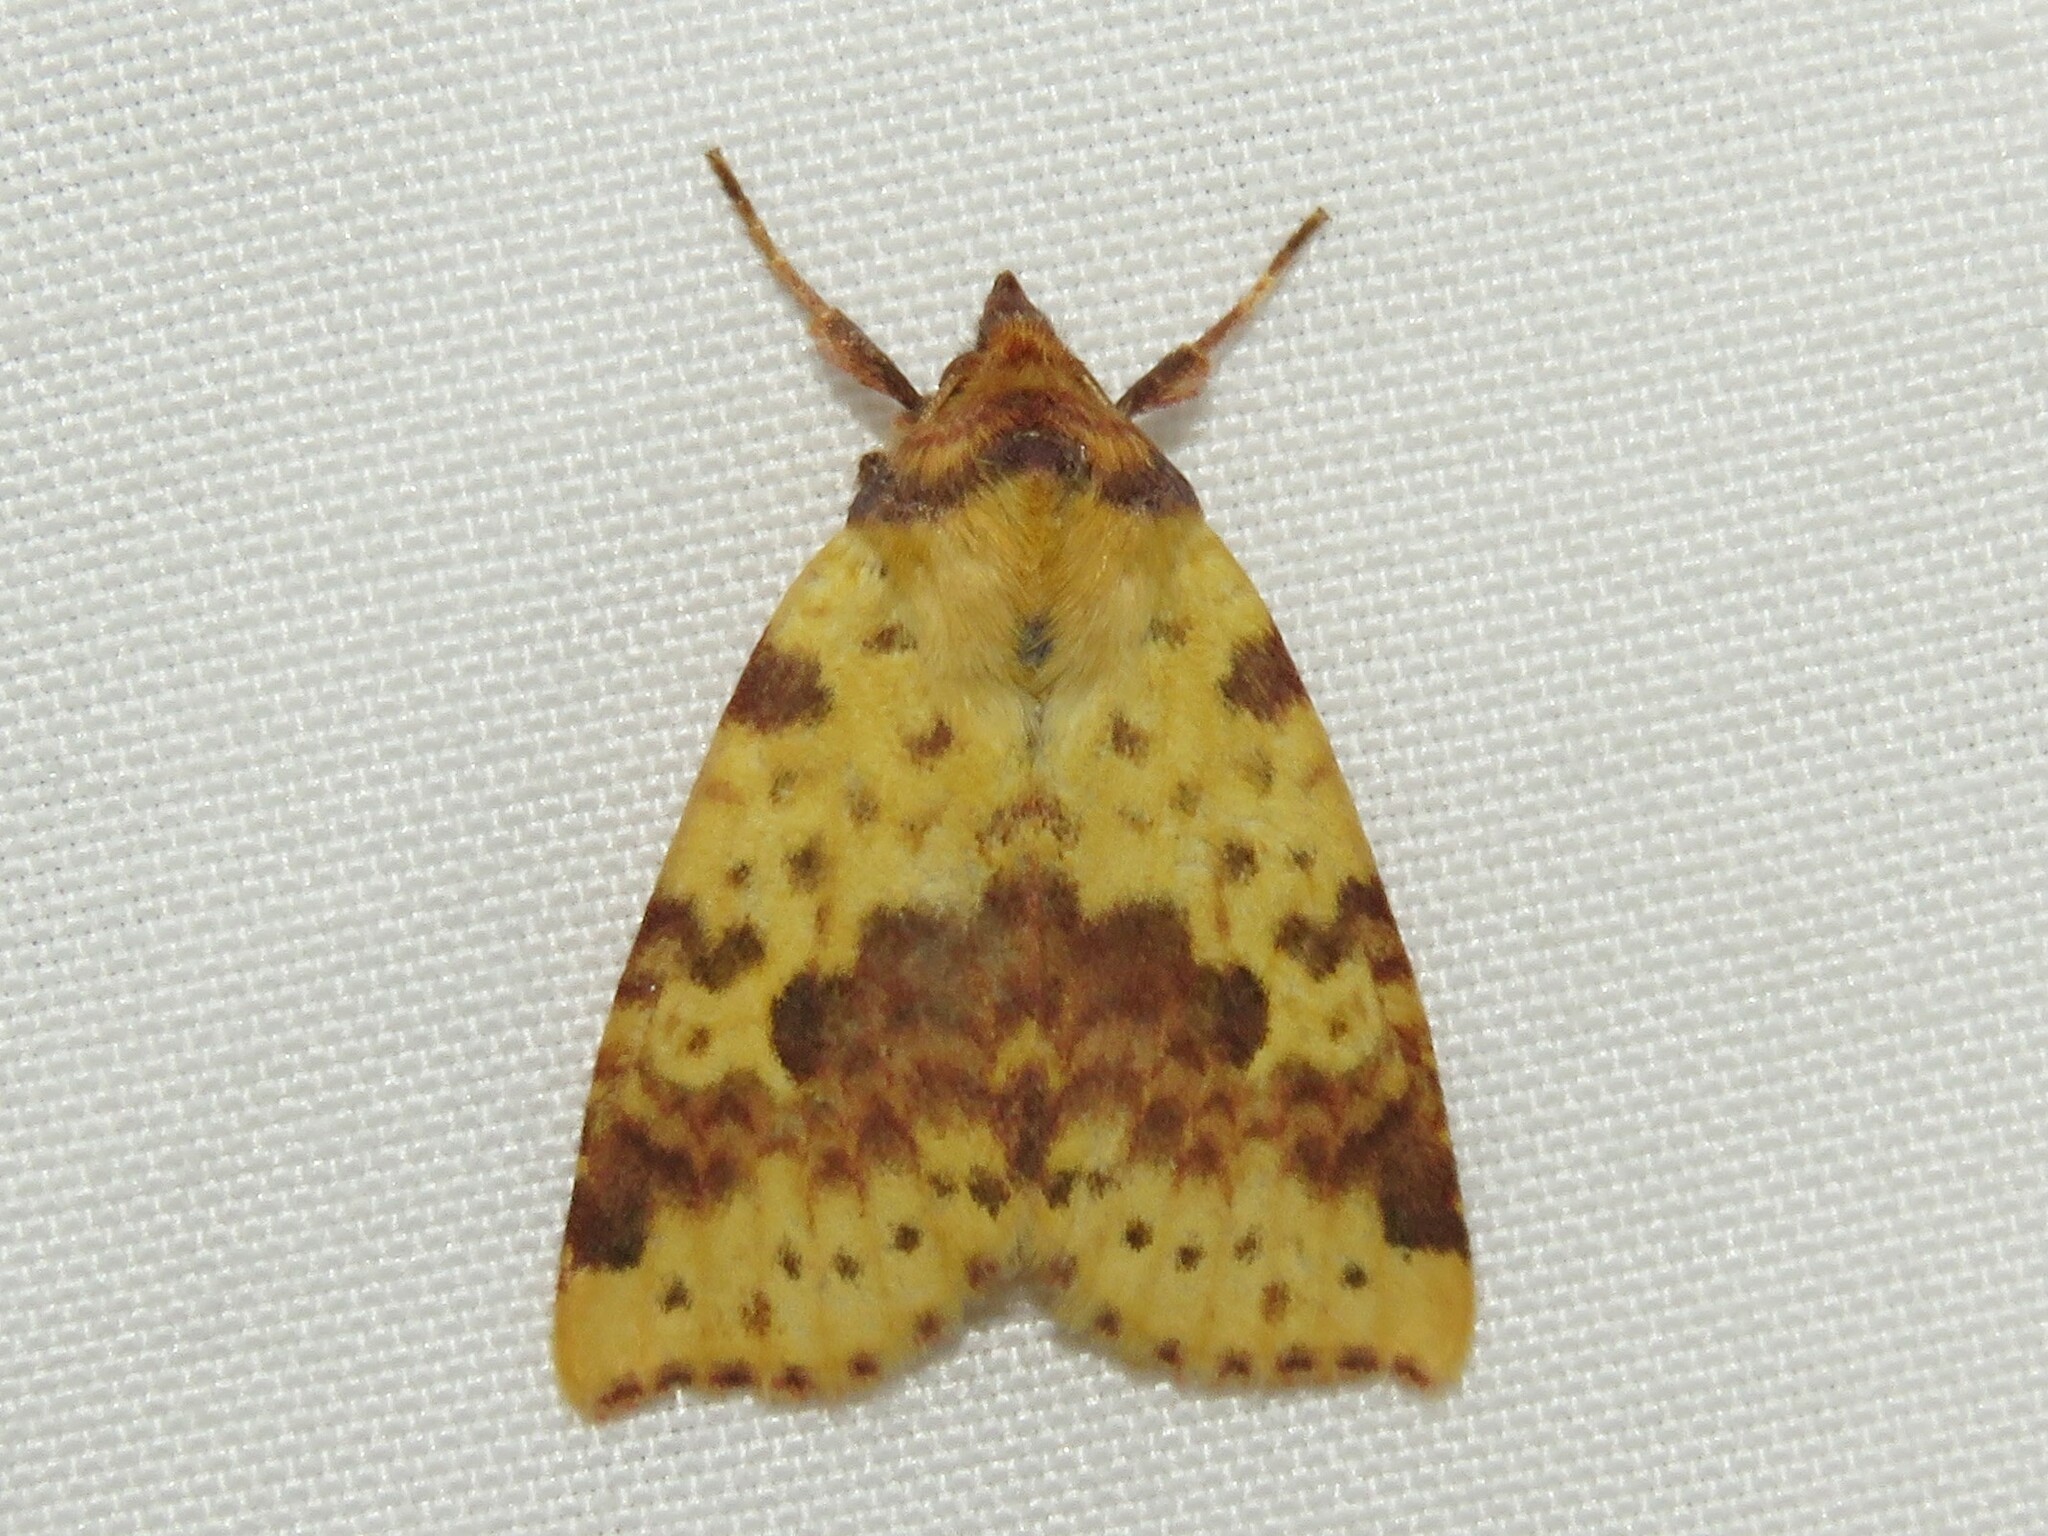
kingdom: Animalia
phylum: Arthropoda
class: Insecta
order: Lepidoptera
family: Noctuidae
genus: Xanthia
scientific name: Xanthia tatago
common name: Pink-banded sallow
